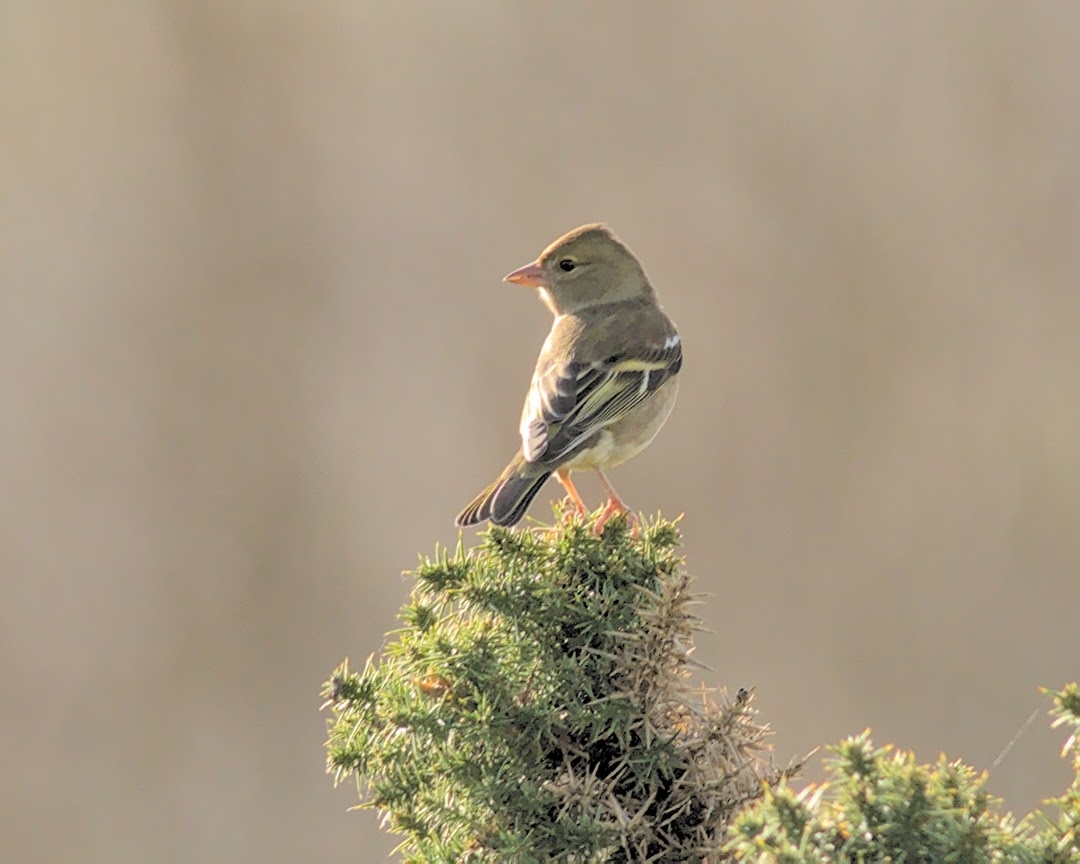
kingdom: Animalia
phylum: Chordata
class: Aves
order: Passeriformes
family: Fringillidae
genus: Fringilla
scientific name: Fringilla coelebs
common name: Common chaffinch
